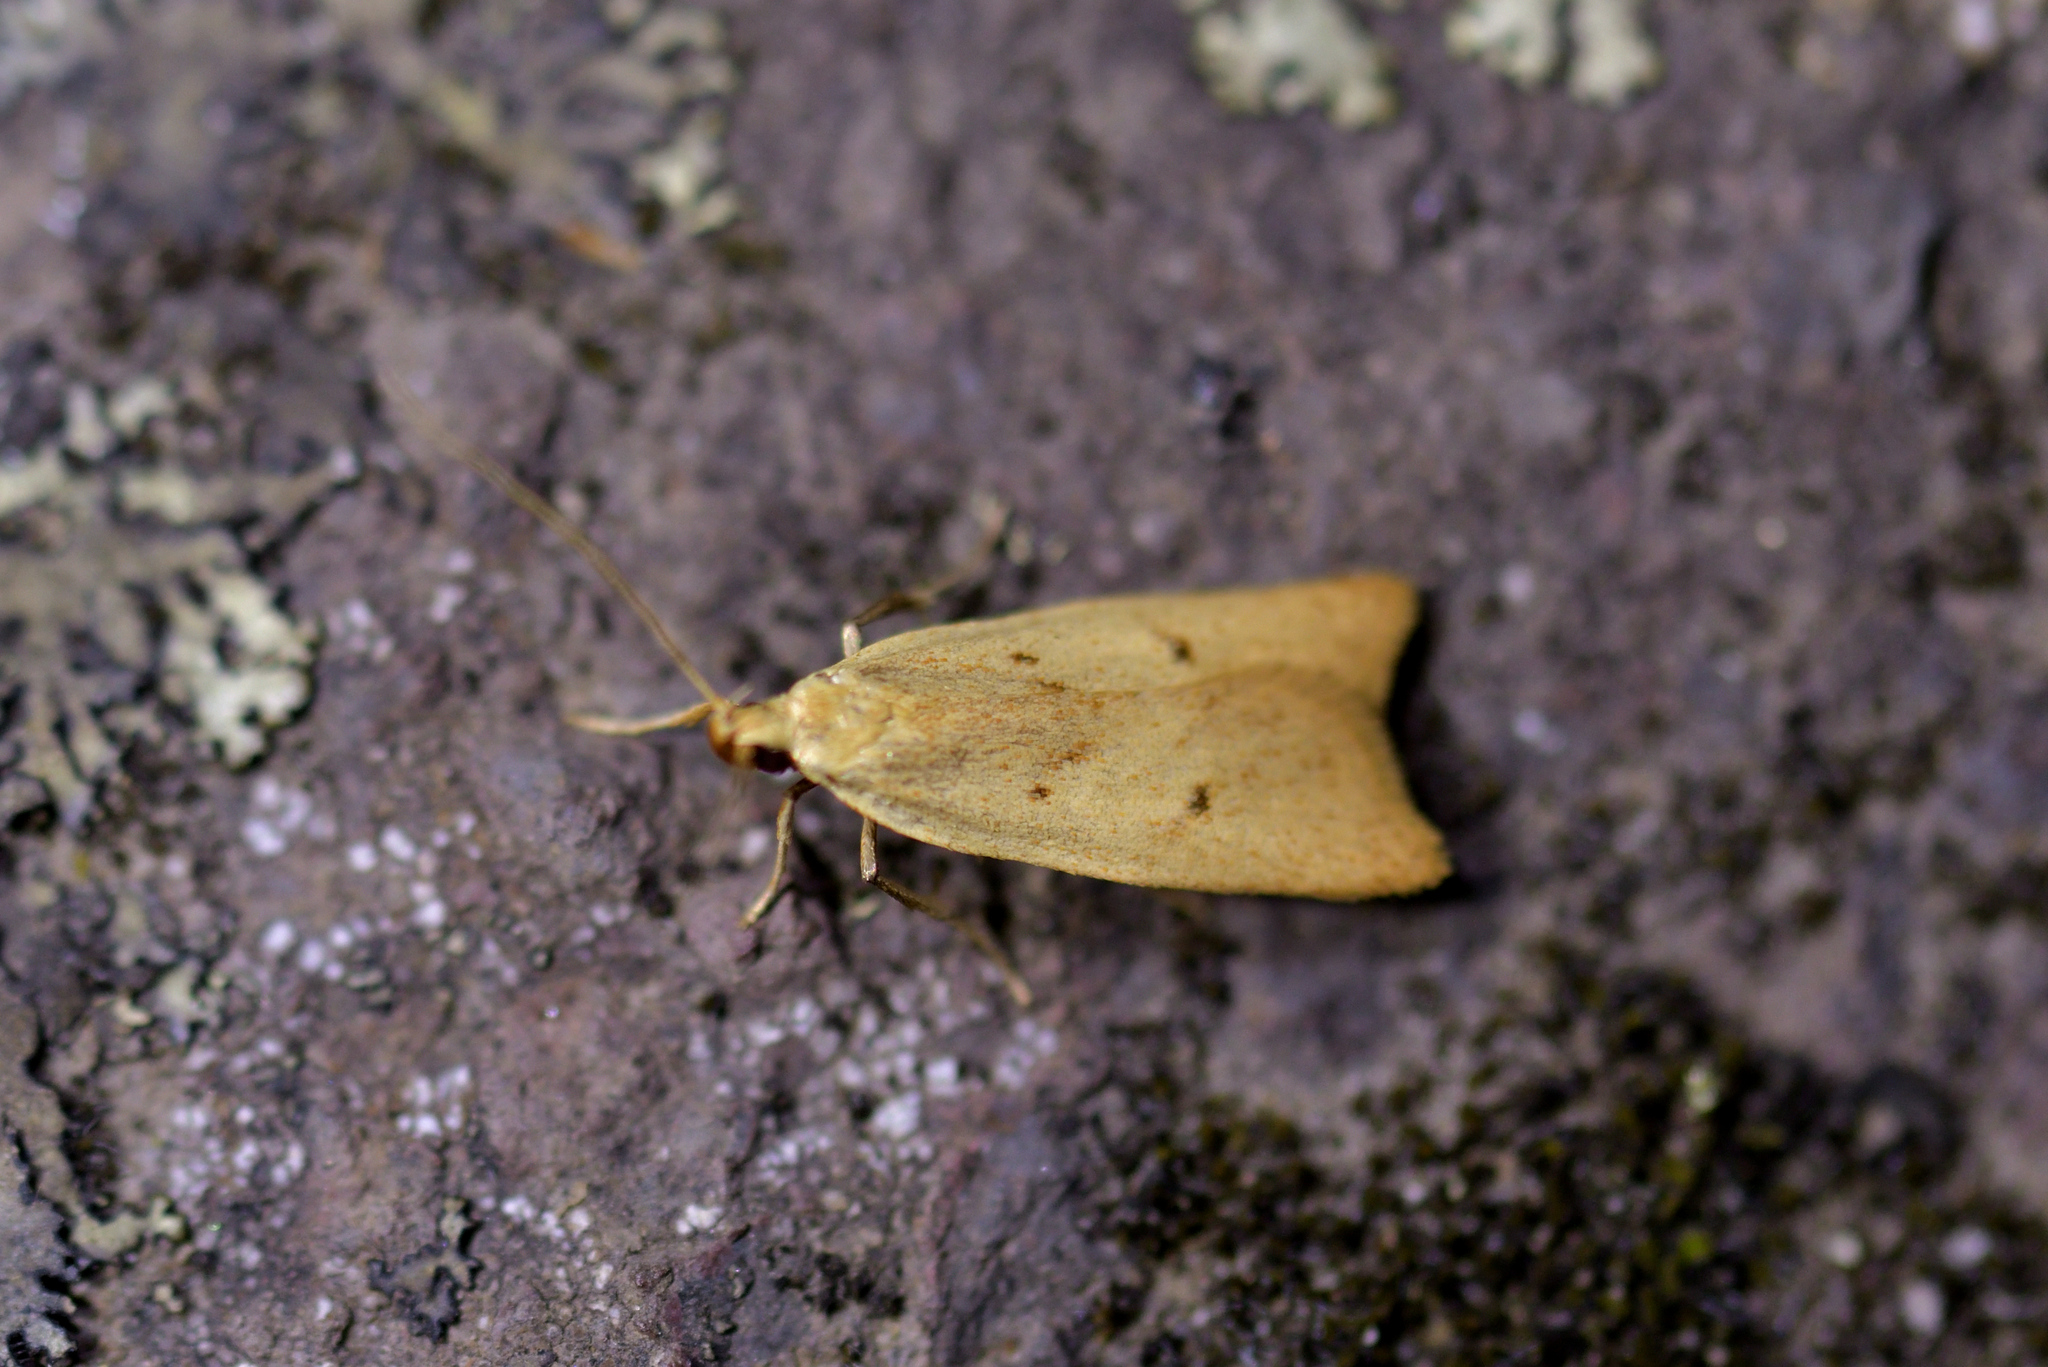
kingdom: Animalia
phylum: Arthropoda
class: Insecta
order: Lepidoptera
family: Oecophoridae
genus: Gymnobathra
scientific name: Gymnobathra sarcoxantha
